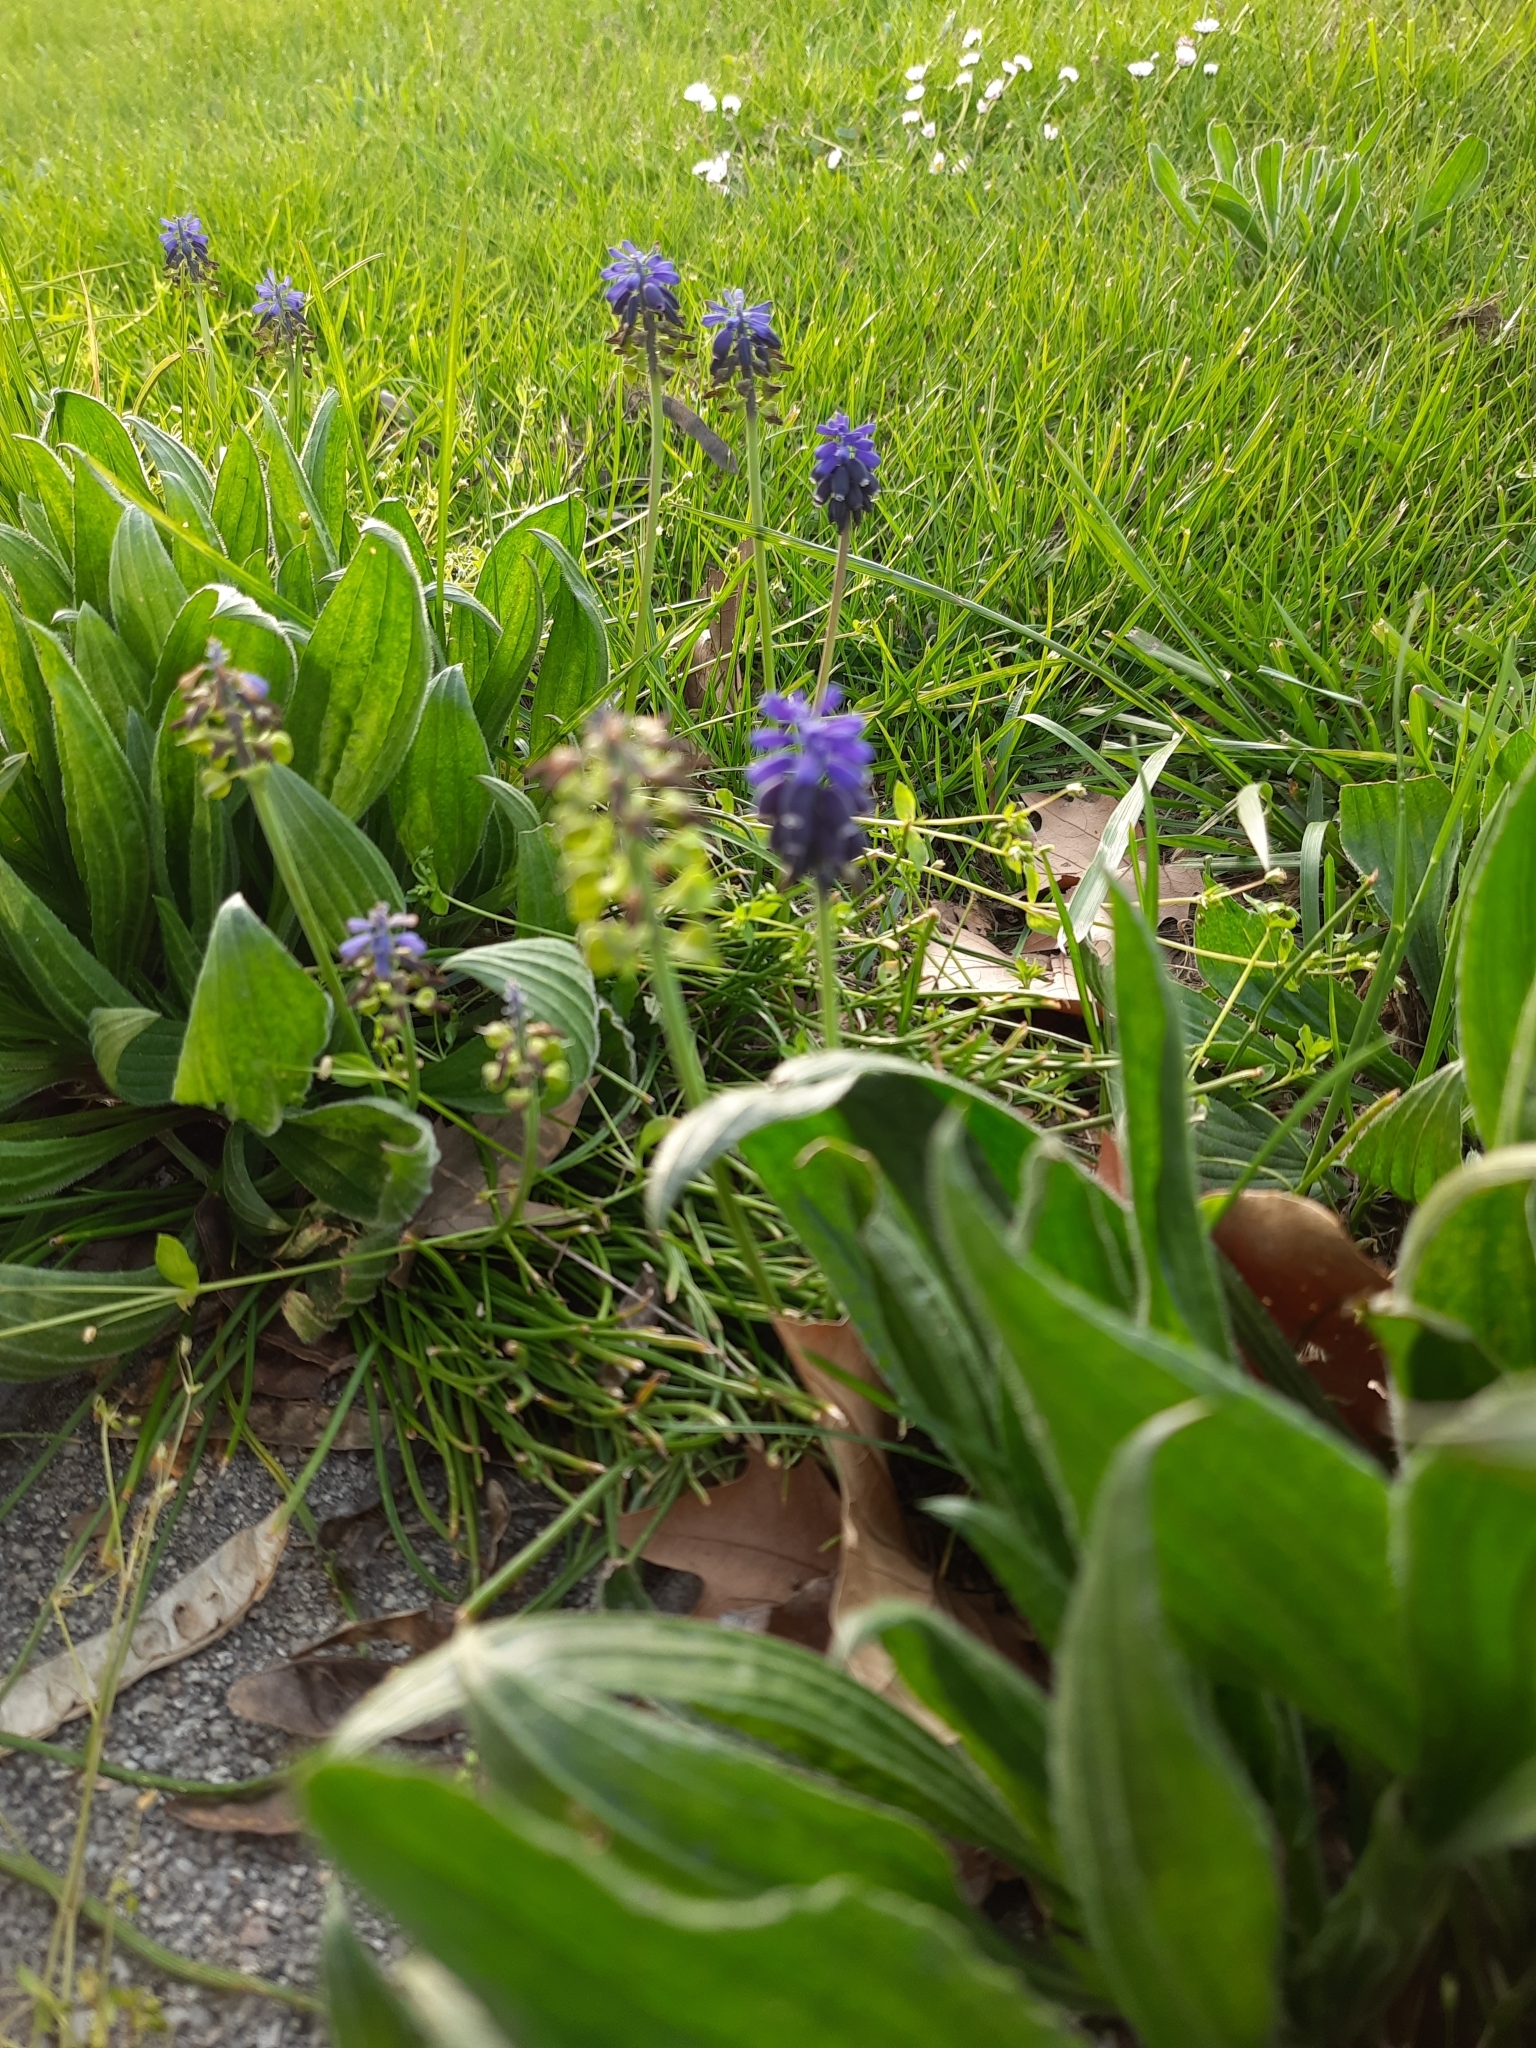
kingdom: Plantae
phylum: Tracheophyta
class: Liliopsida
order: Asparagales
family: Asparagaceae
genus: Muscari
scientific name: Muscari neglectum
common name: Grape-hyacinth
